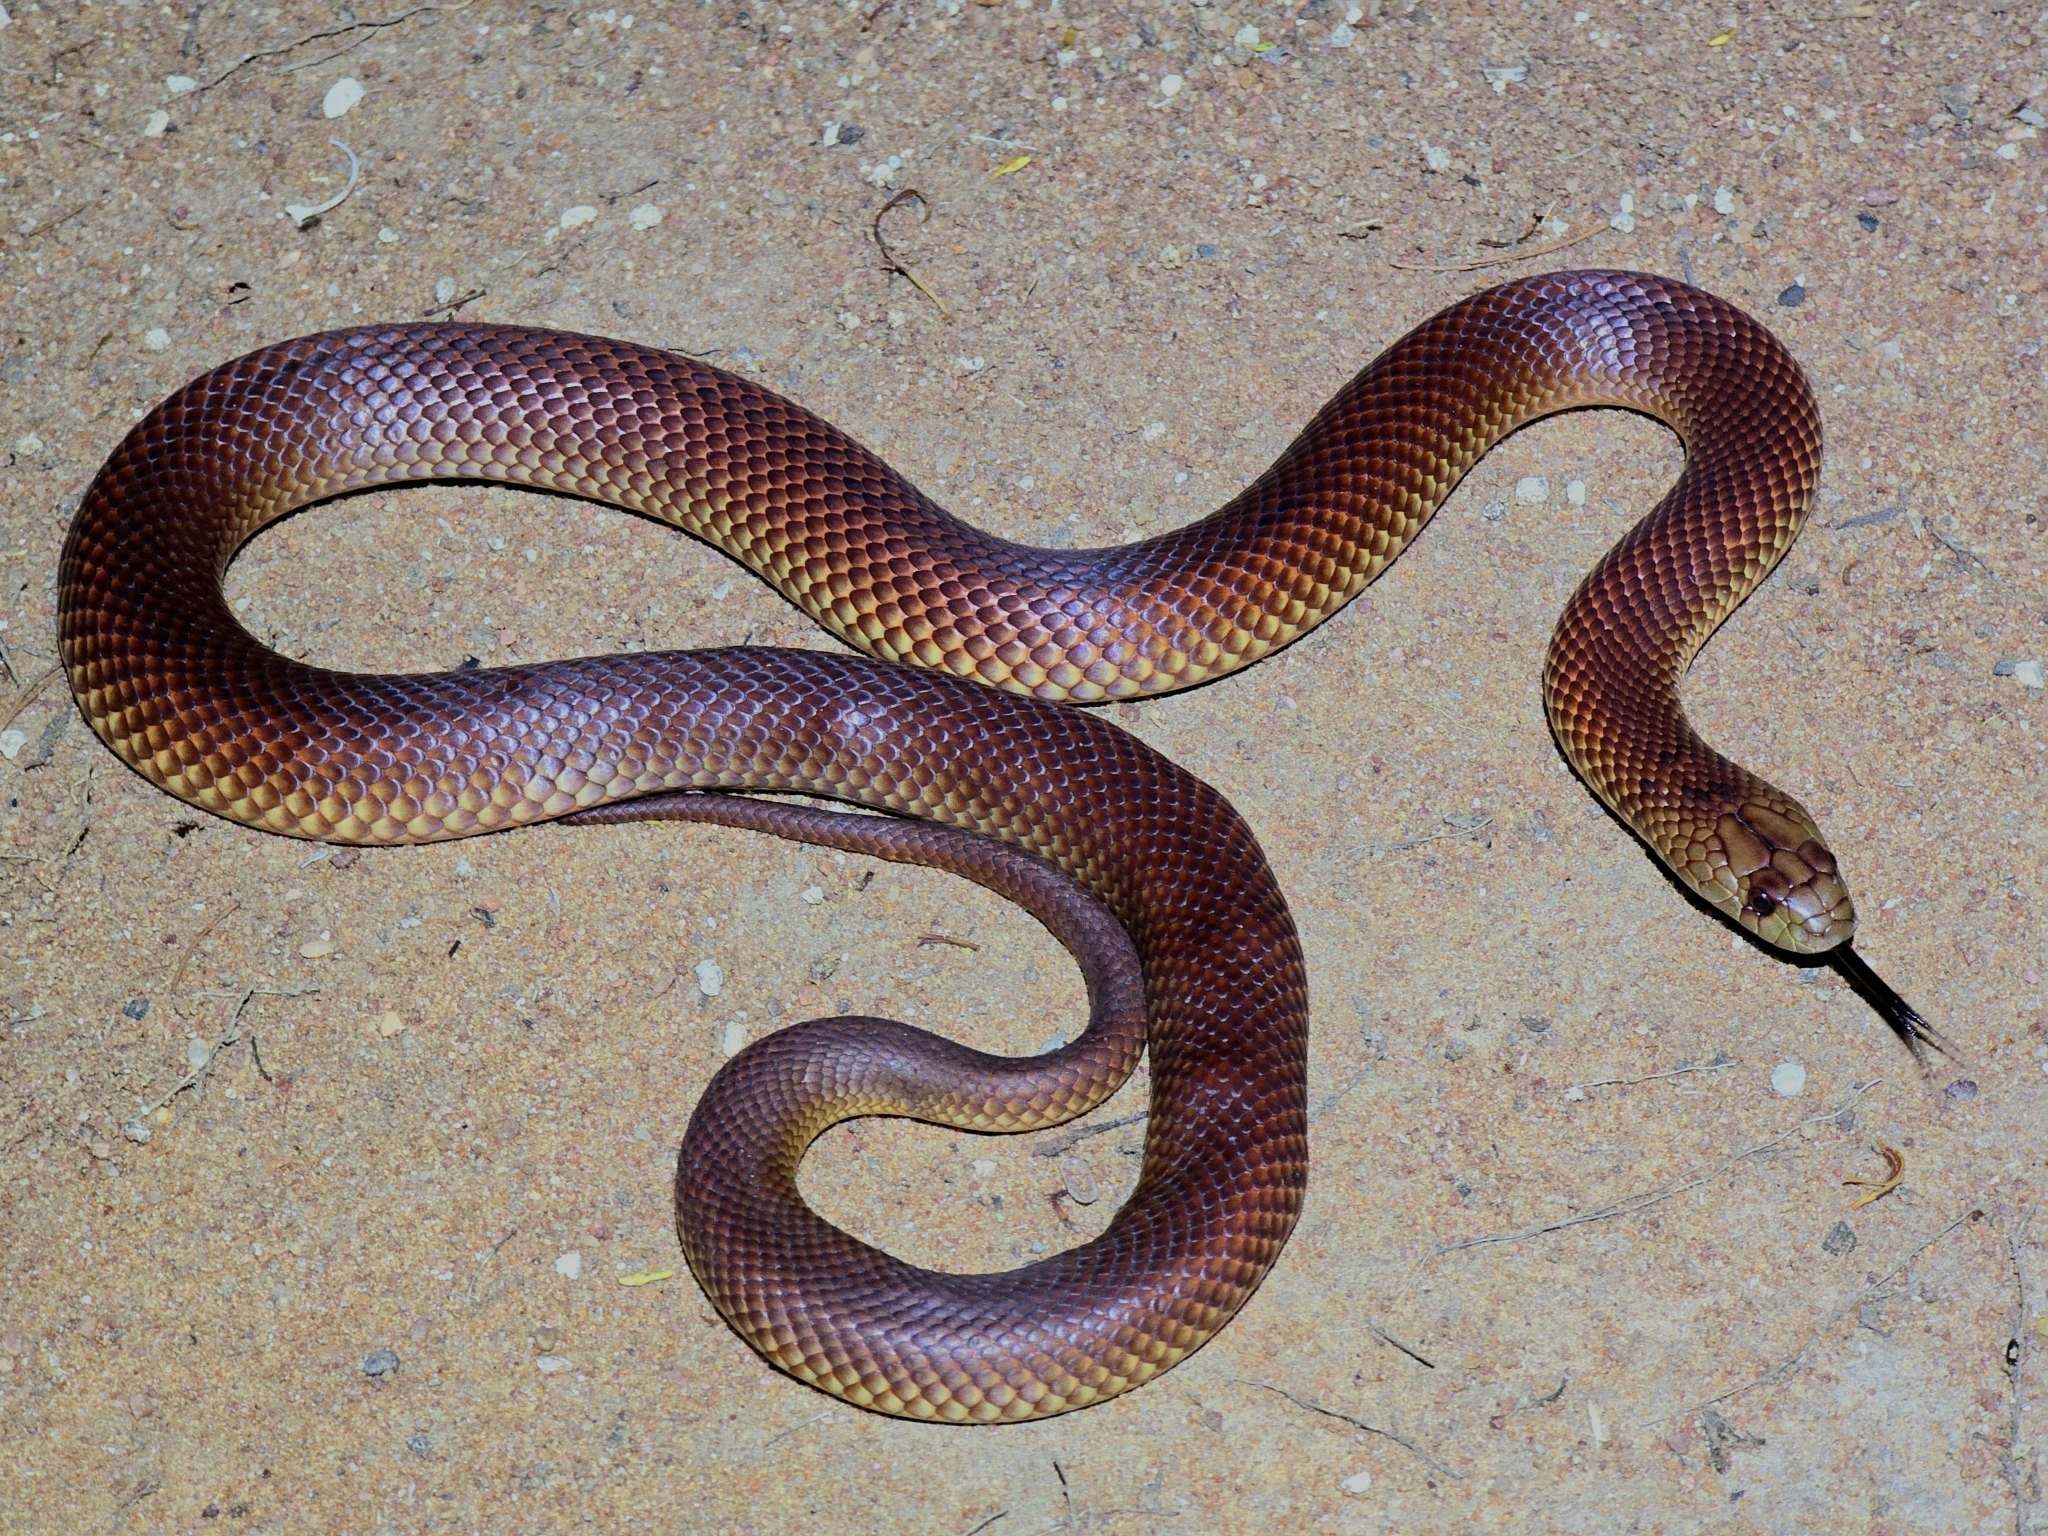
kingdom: Animalia
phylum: Chordata
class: Squamata
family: Elapidae
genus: Pseudechis
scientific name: Pseudechis australis
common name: King brown snake
